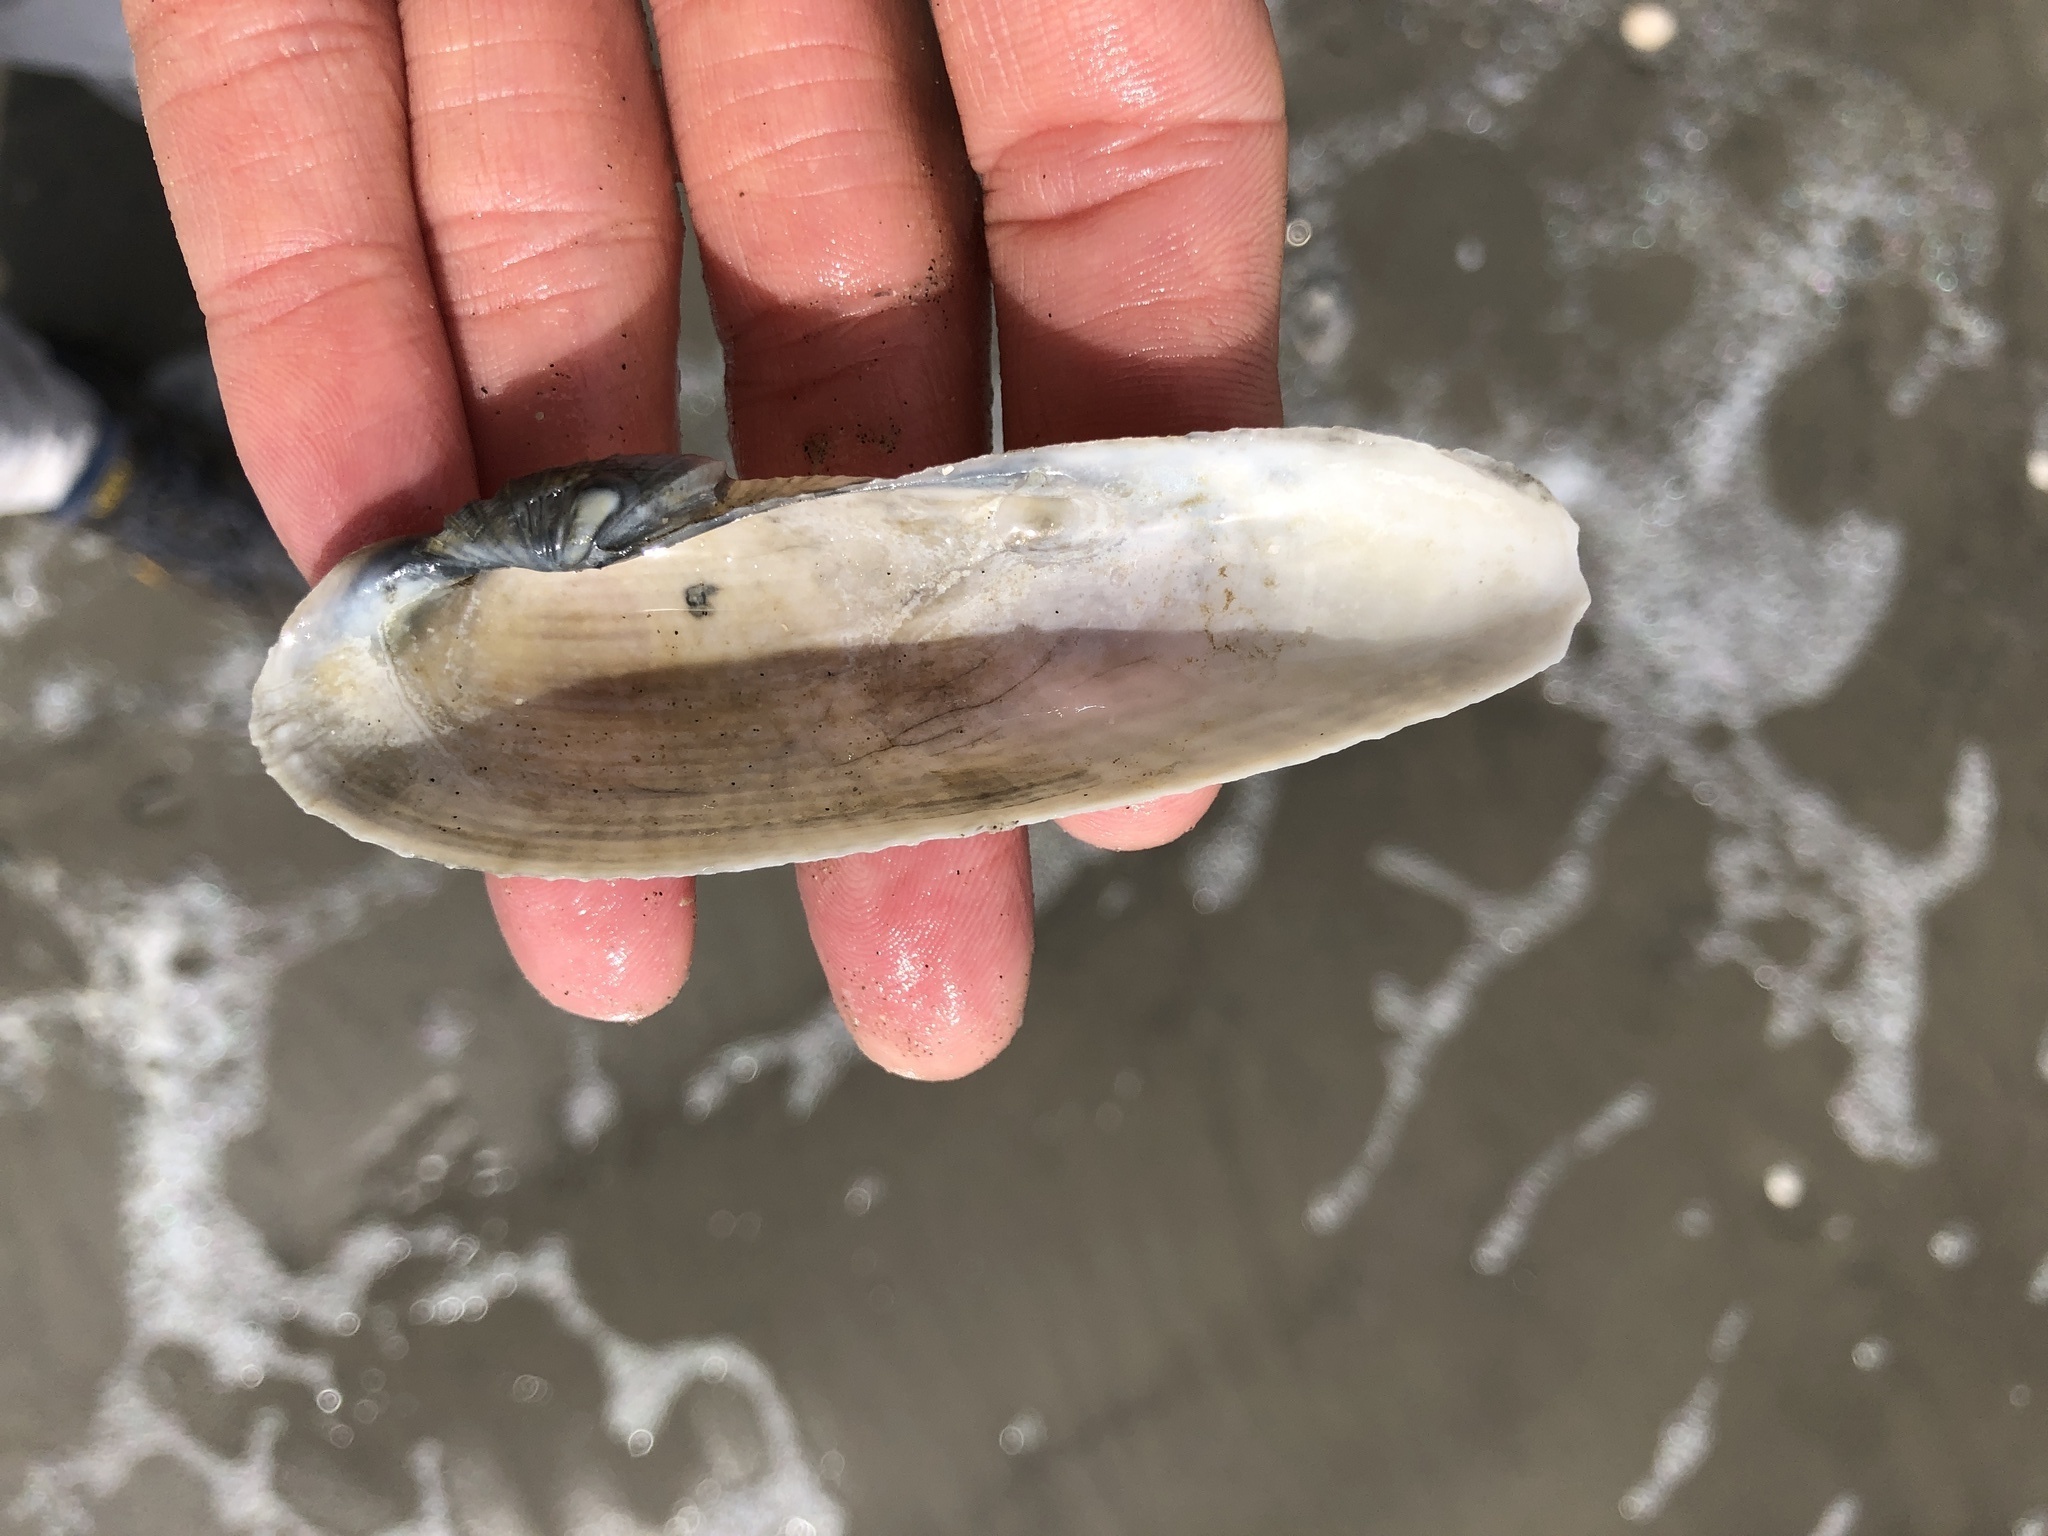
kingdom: Animalia
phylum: Mollusca
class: Bivalvia
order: Myida
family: Pholadidae
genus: Pholas
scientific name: Pholas campechiensis
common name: Campeche angel wing
